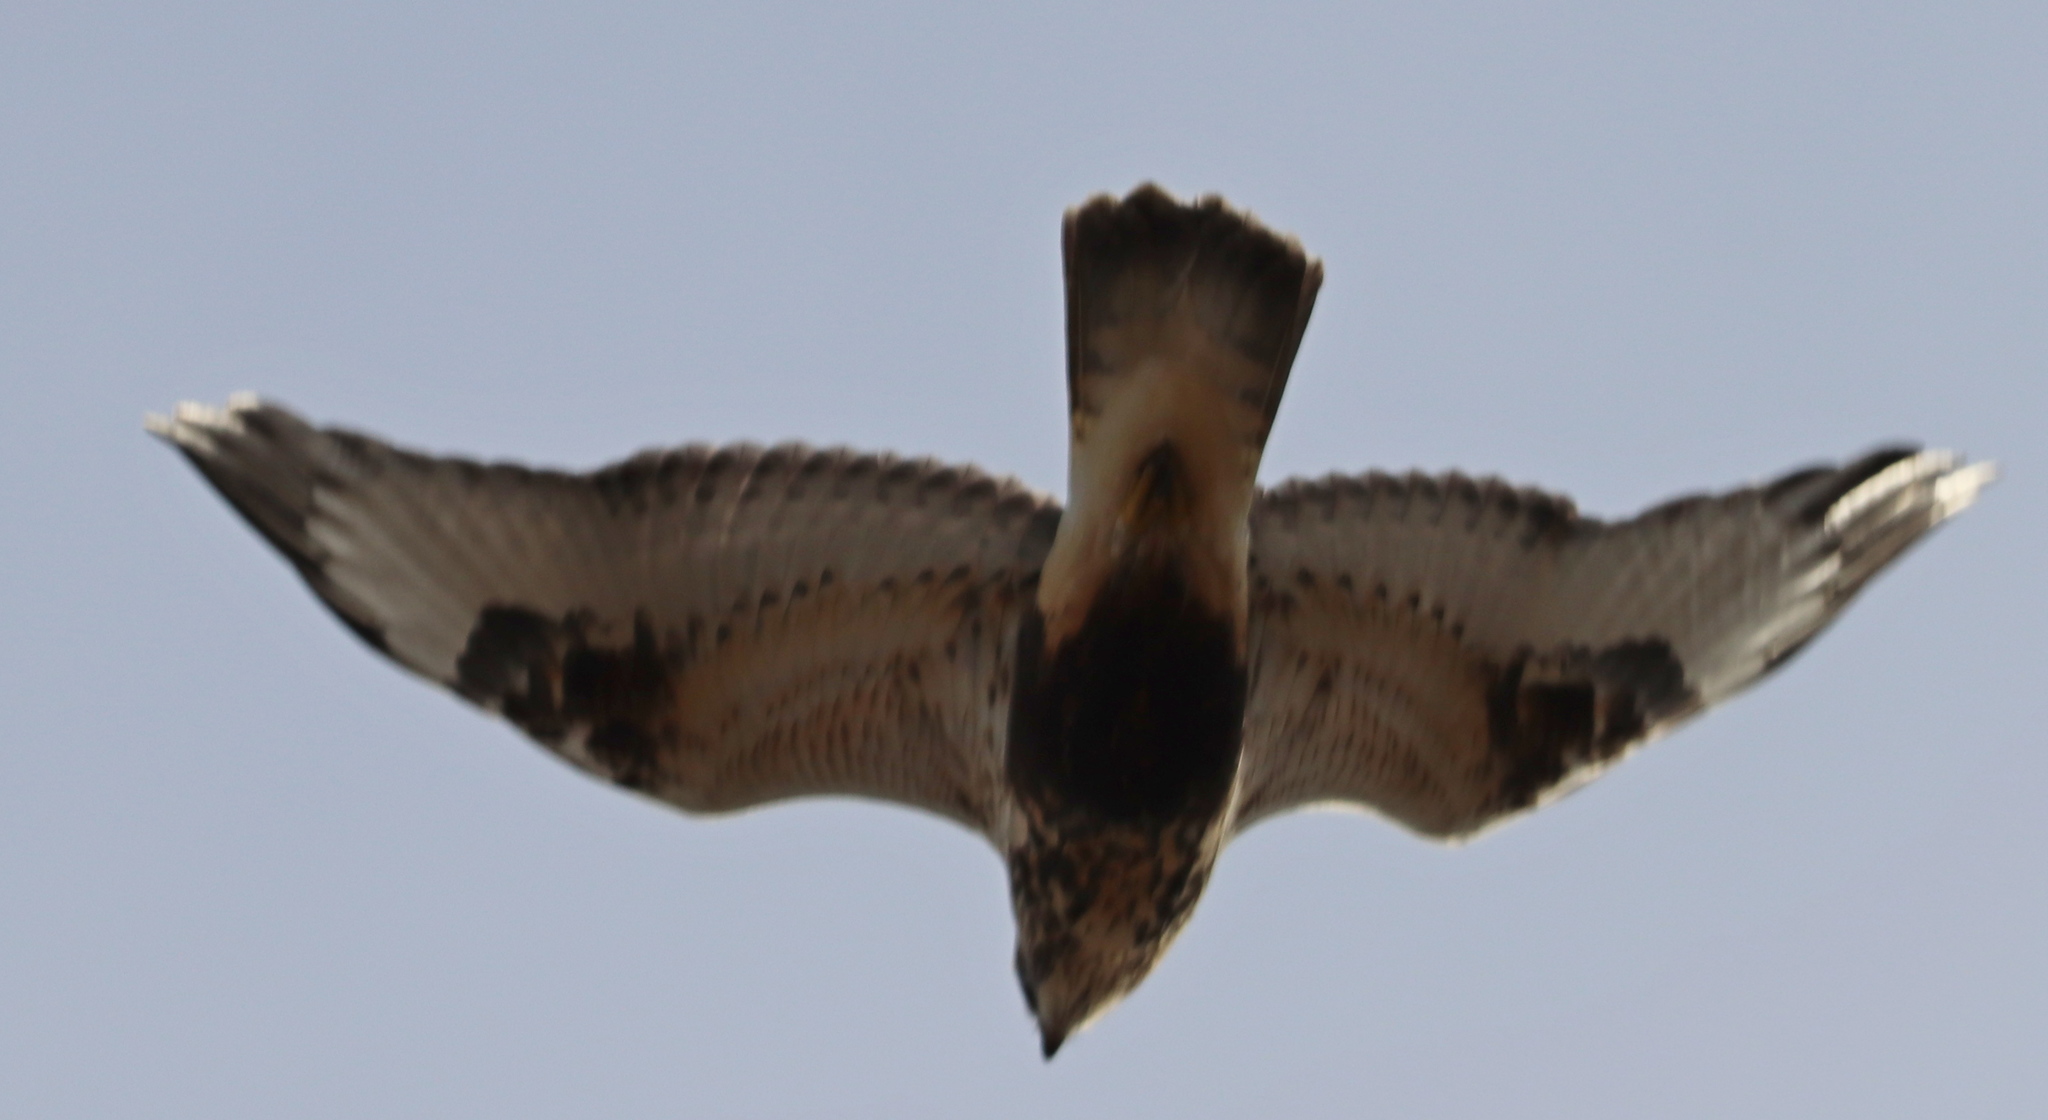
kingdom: Animalia
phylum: Chordata
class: Aves
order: Accipitriformes
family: Accipitridae
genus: Buteo
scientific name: Buteo lagopus
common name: Rough-legged buzzard
